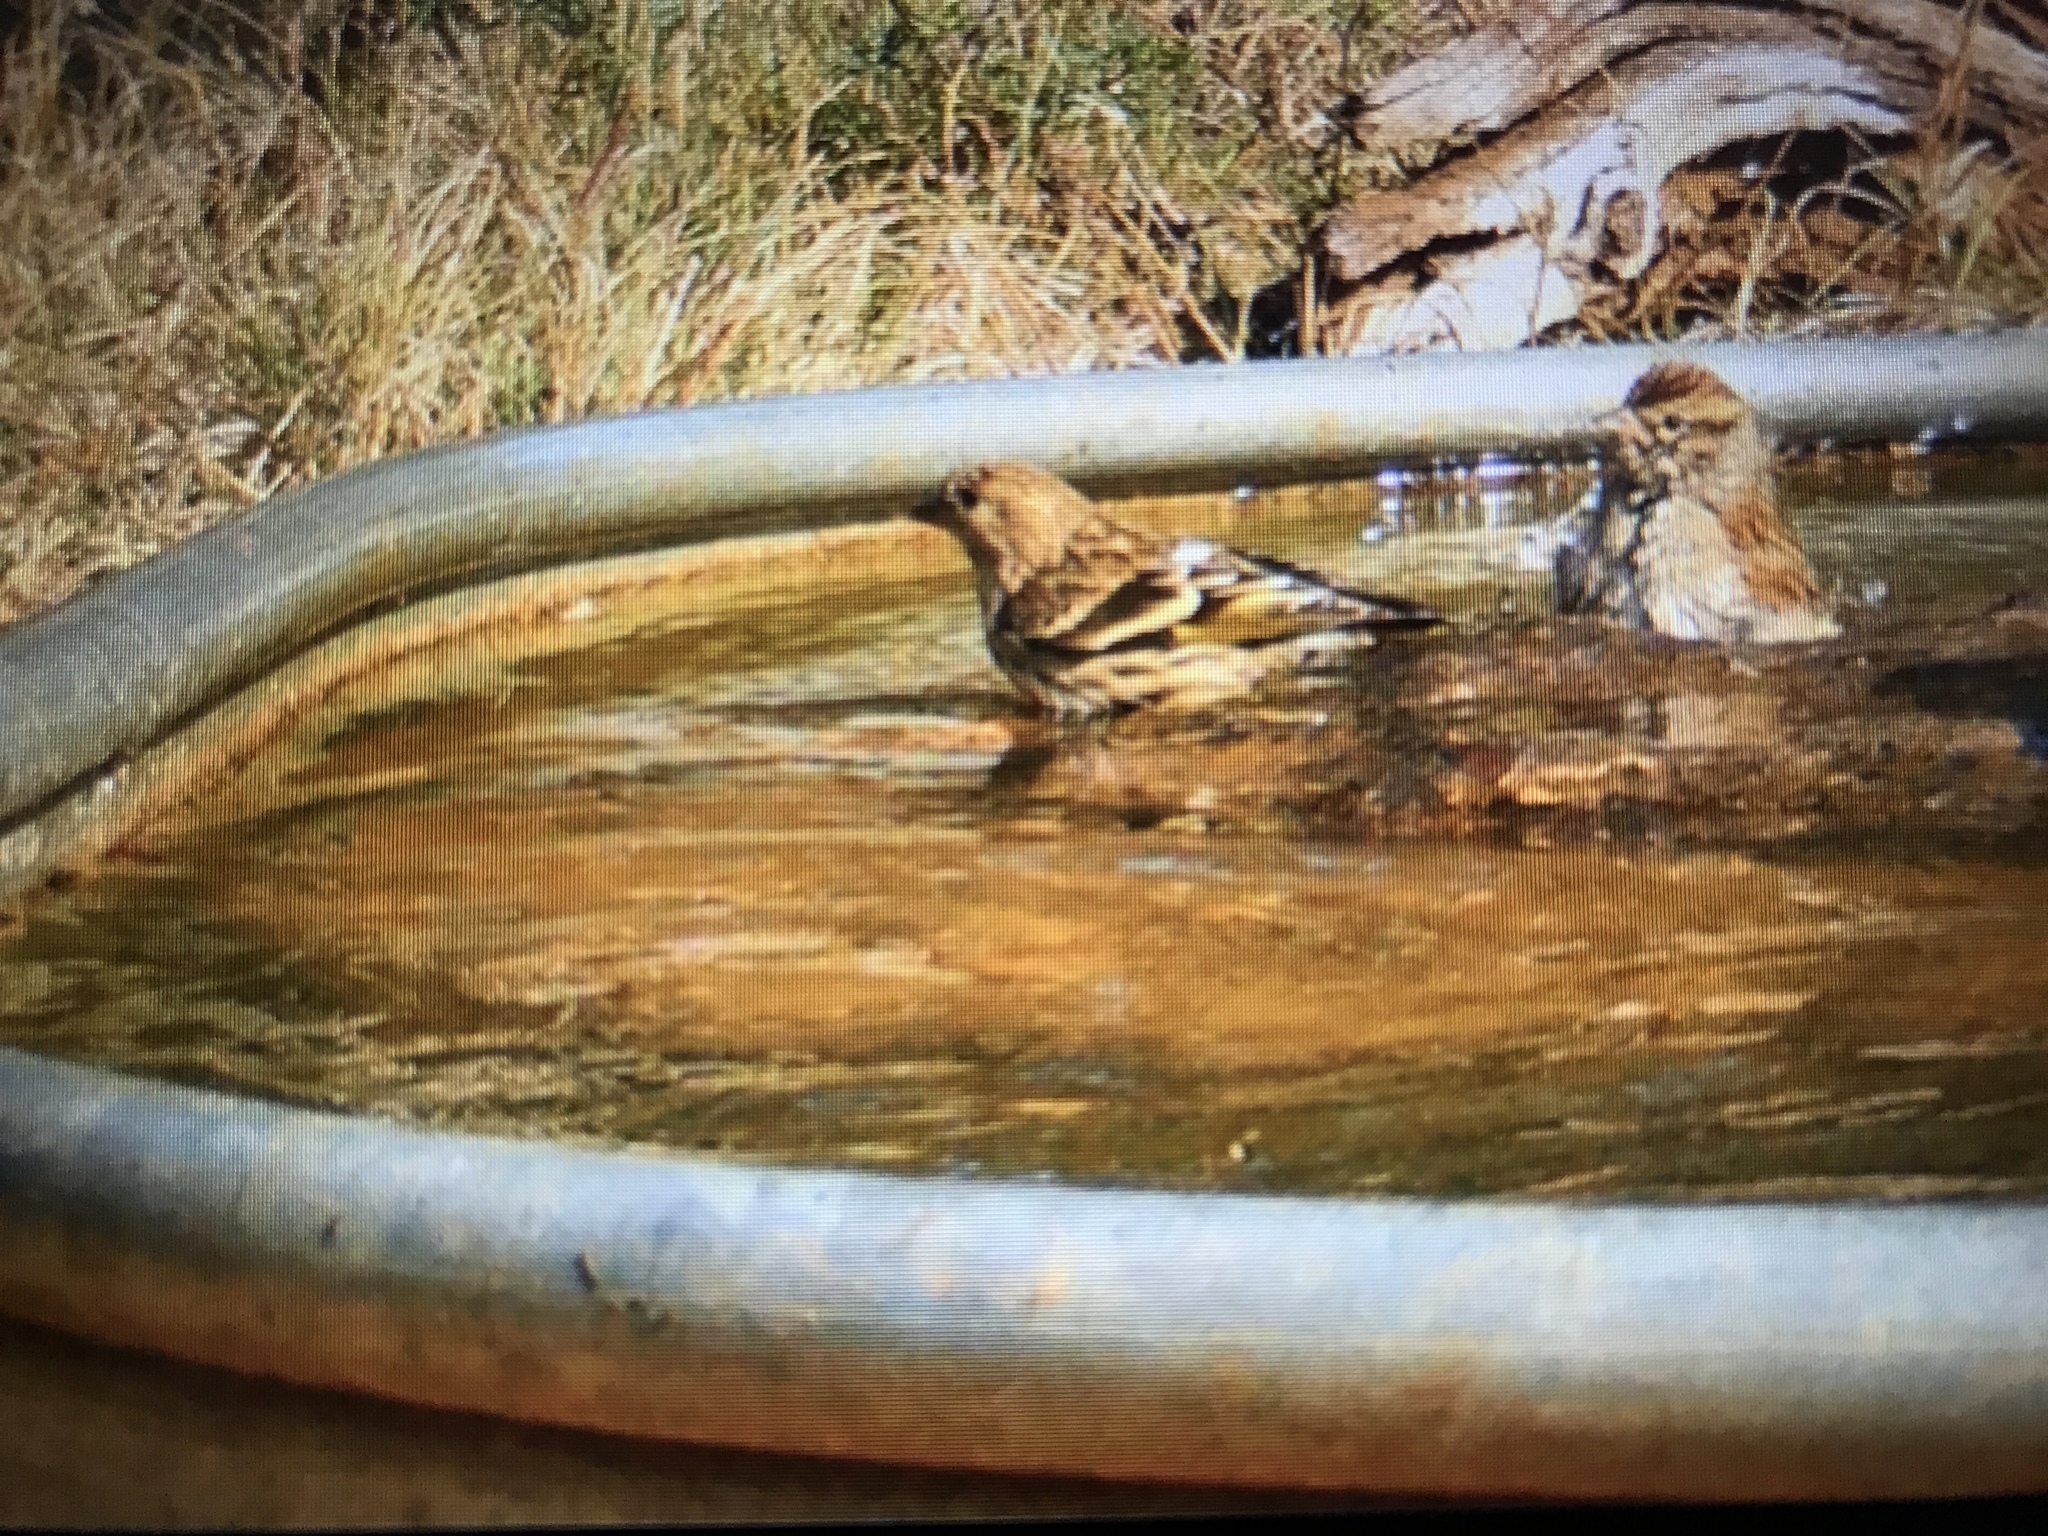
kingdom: Animalia
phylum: Chordata
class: Aves
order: Passeriformes
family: Fringillidae
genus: Spinus
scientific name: Spinus pinus
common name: Pine siskin
